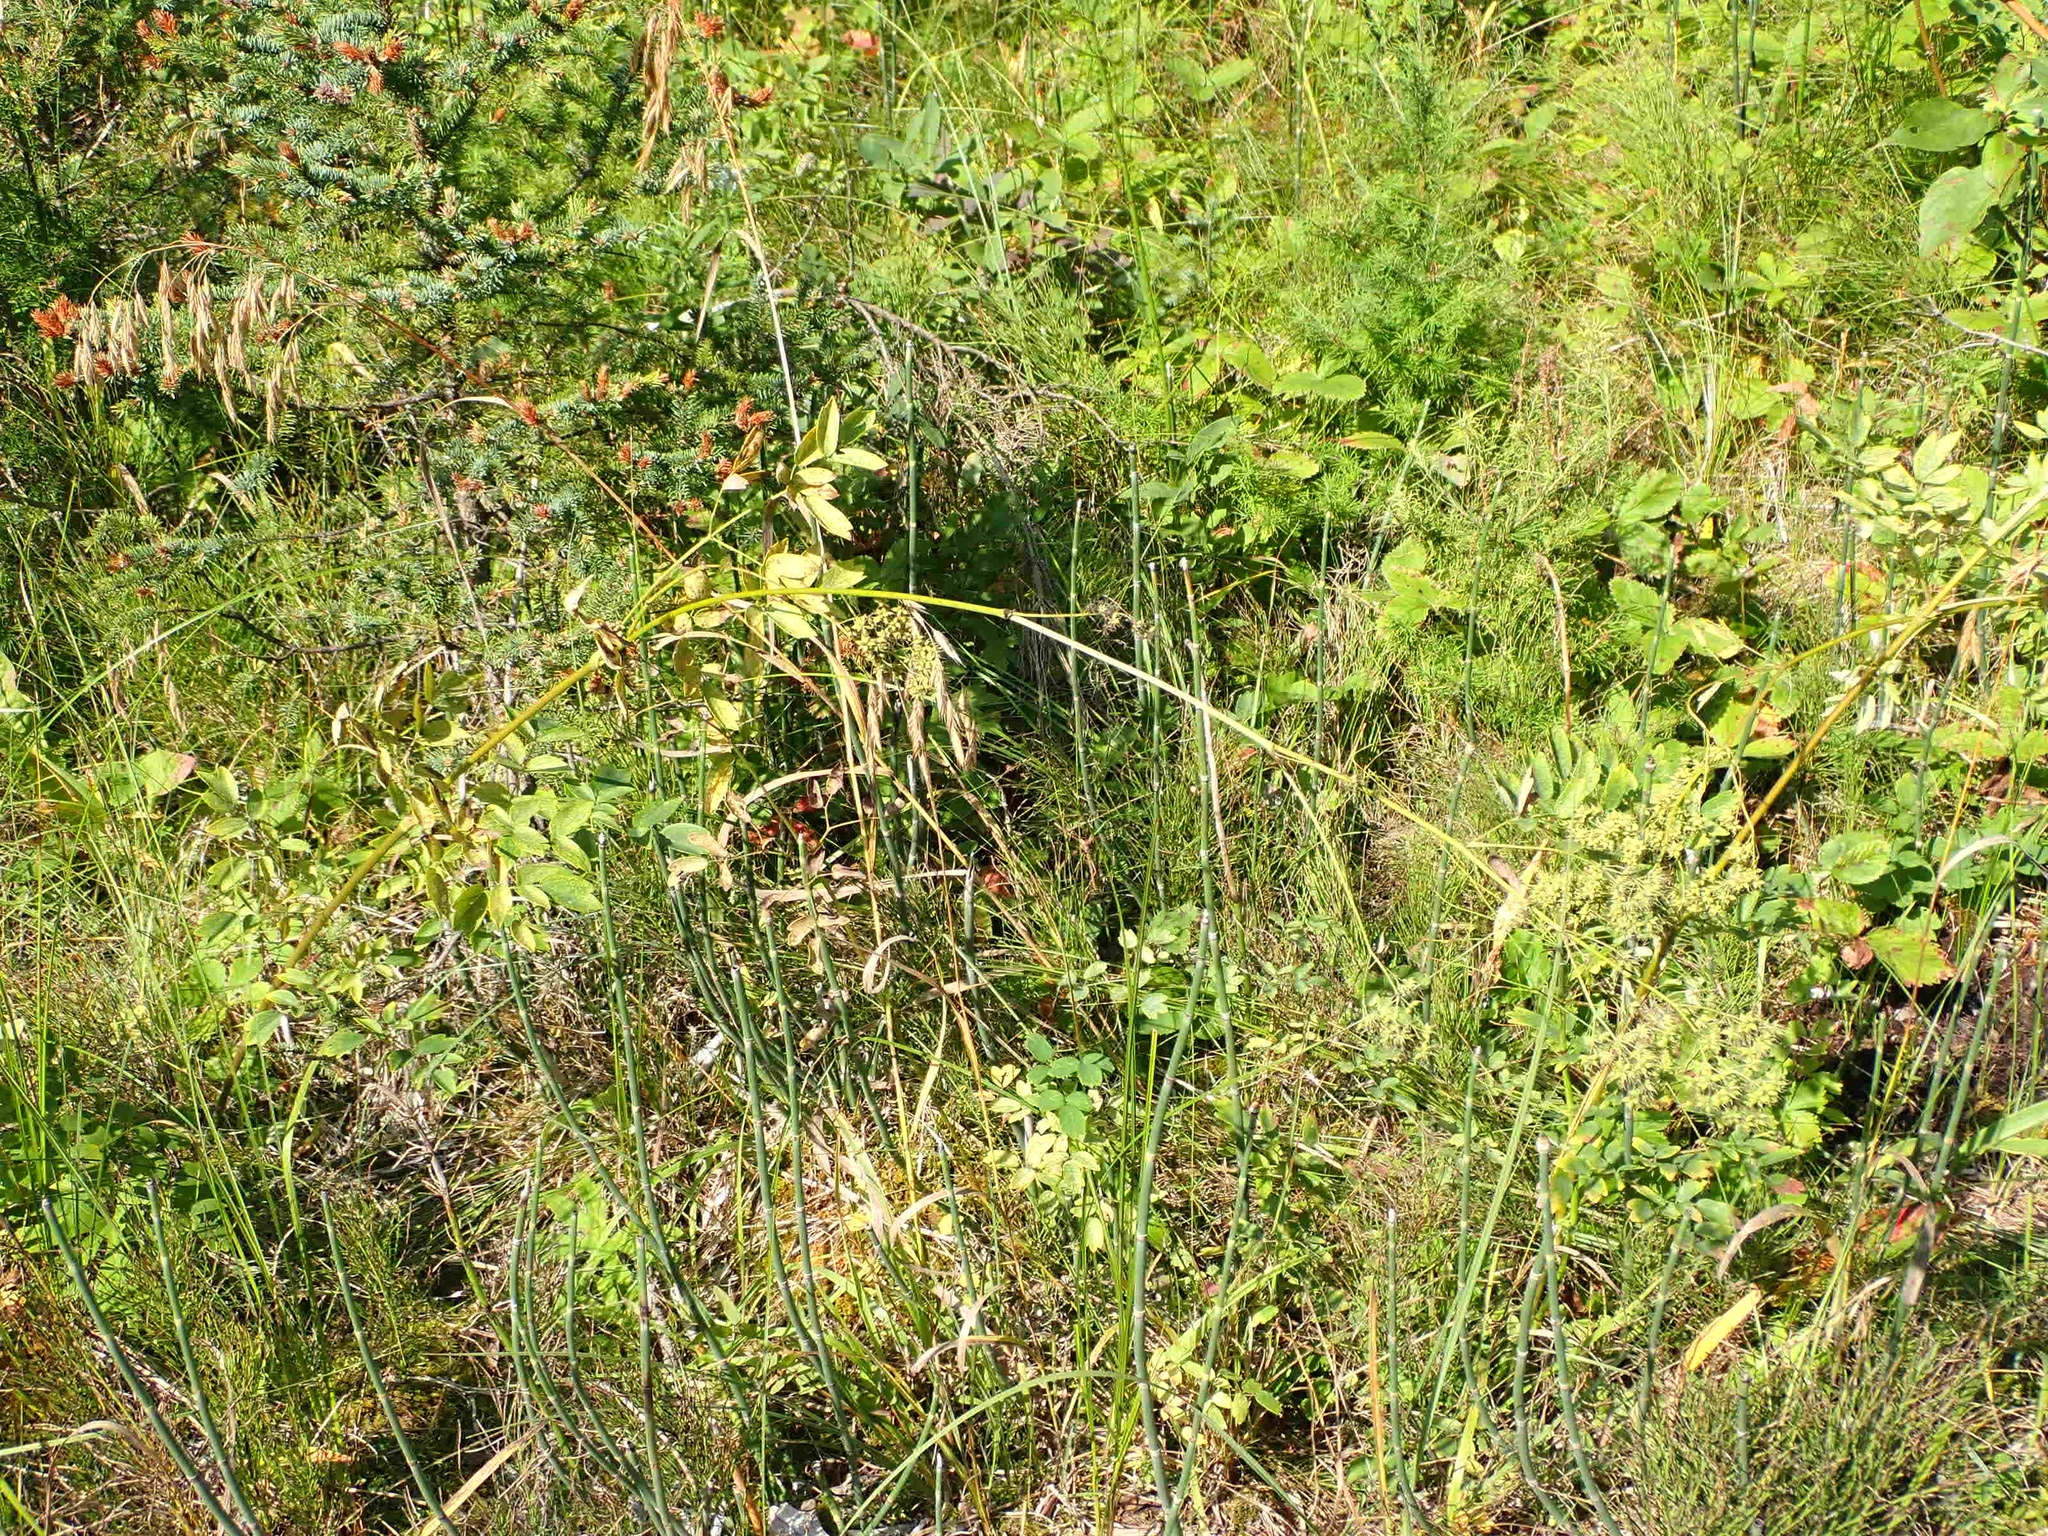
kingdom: Plantae
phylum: Tracheophyta
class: Magnoliopsida
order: Ranunculales
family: Ranunculaceae
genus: Thalictrum
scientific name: Thalictrum dasycarpum
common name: Purple meadow-rue
